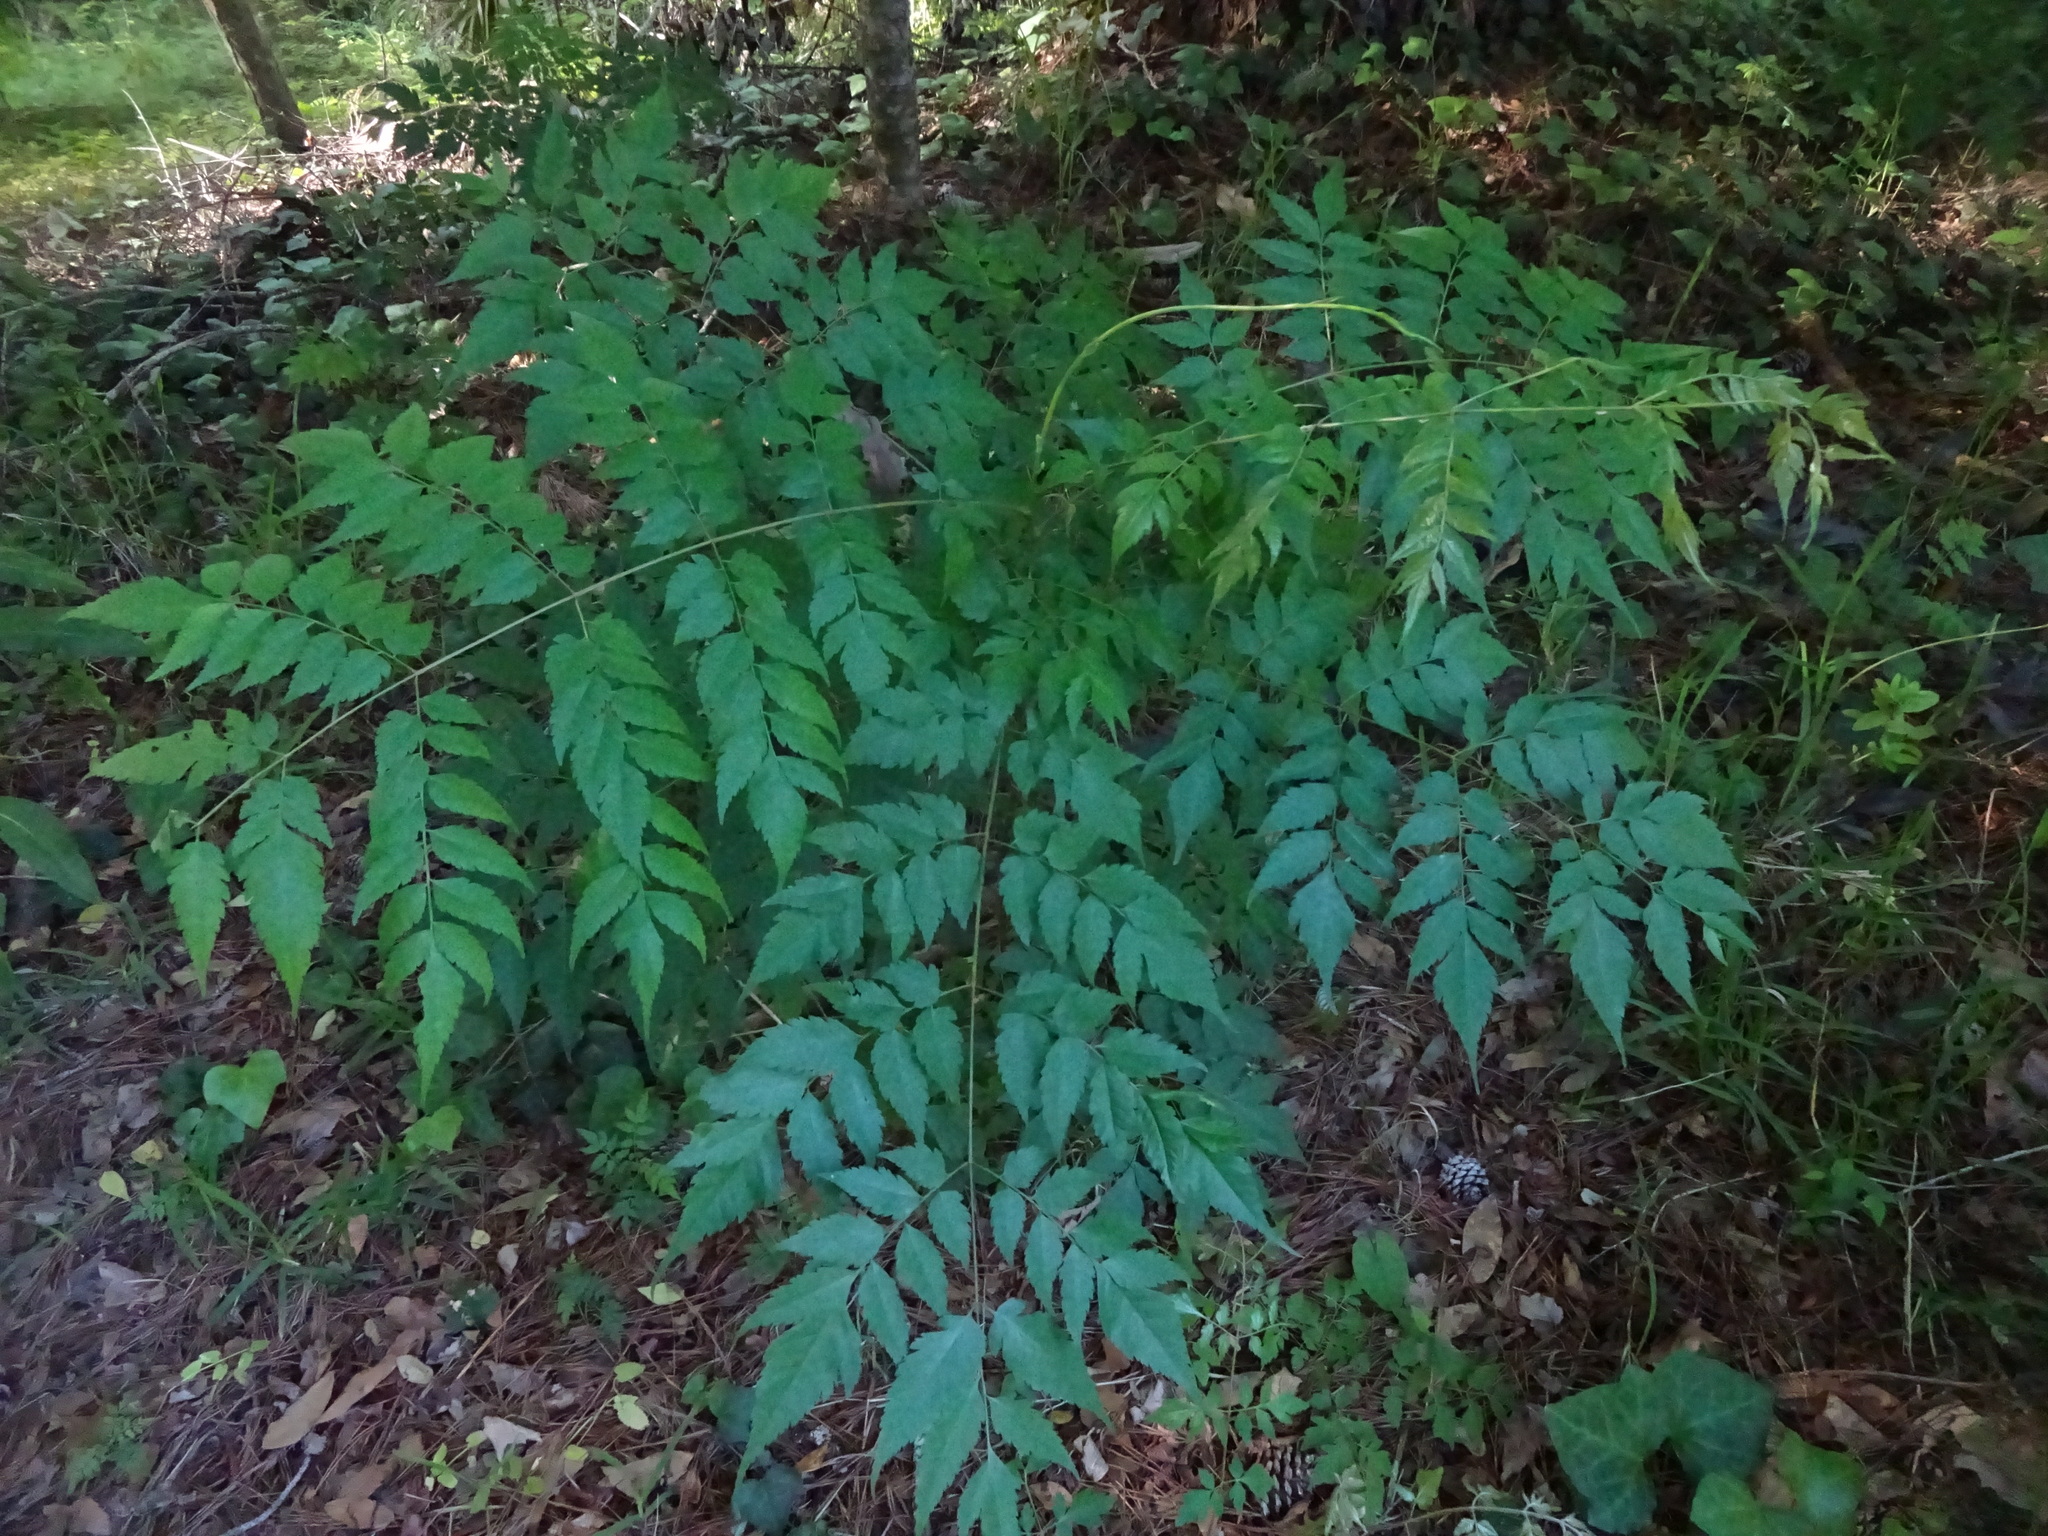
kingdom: Plantae
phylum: Tracheophyta
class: Magnoliopsida
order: Sapindales
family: Sapindaceae
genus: Koelreuteria
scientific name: Koelreuteria elegans
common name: Chinese flame tree
